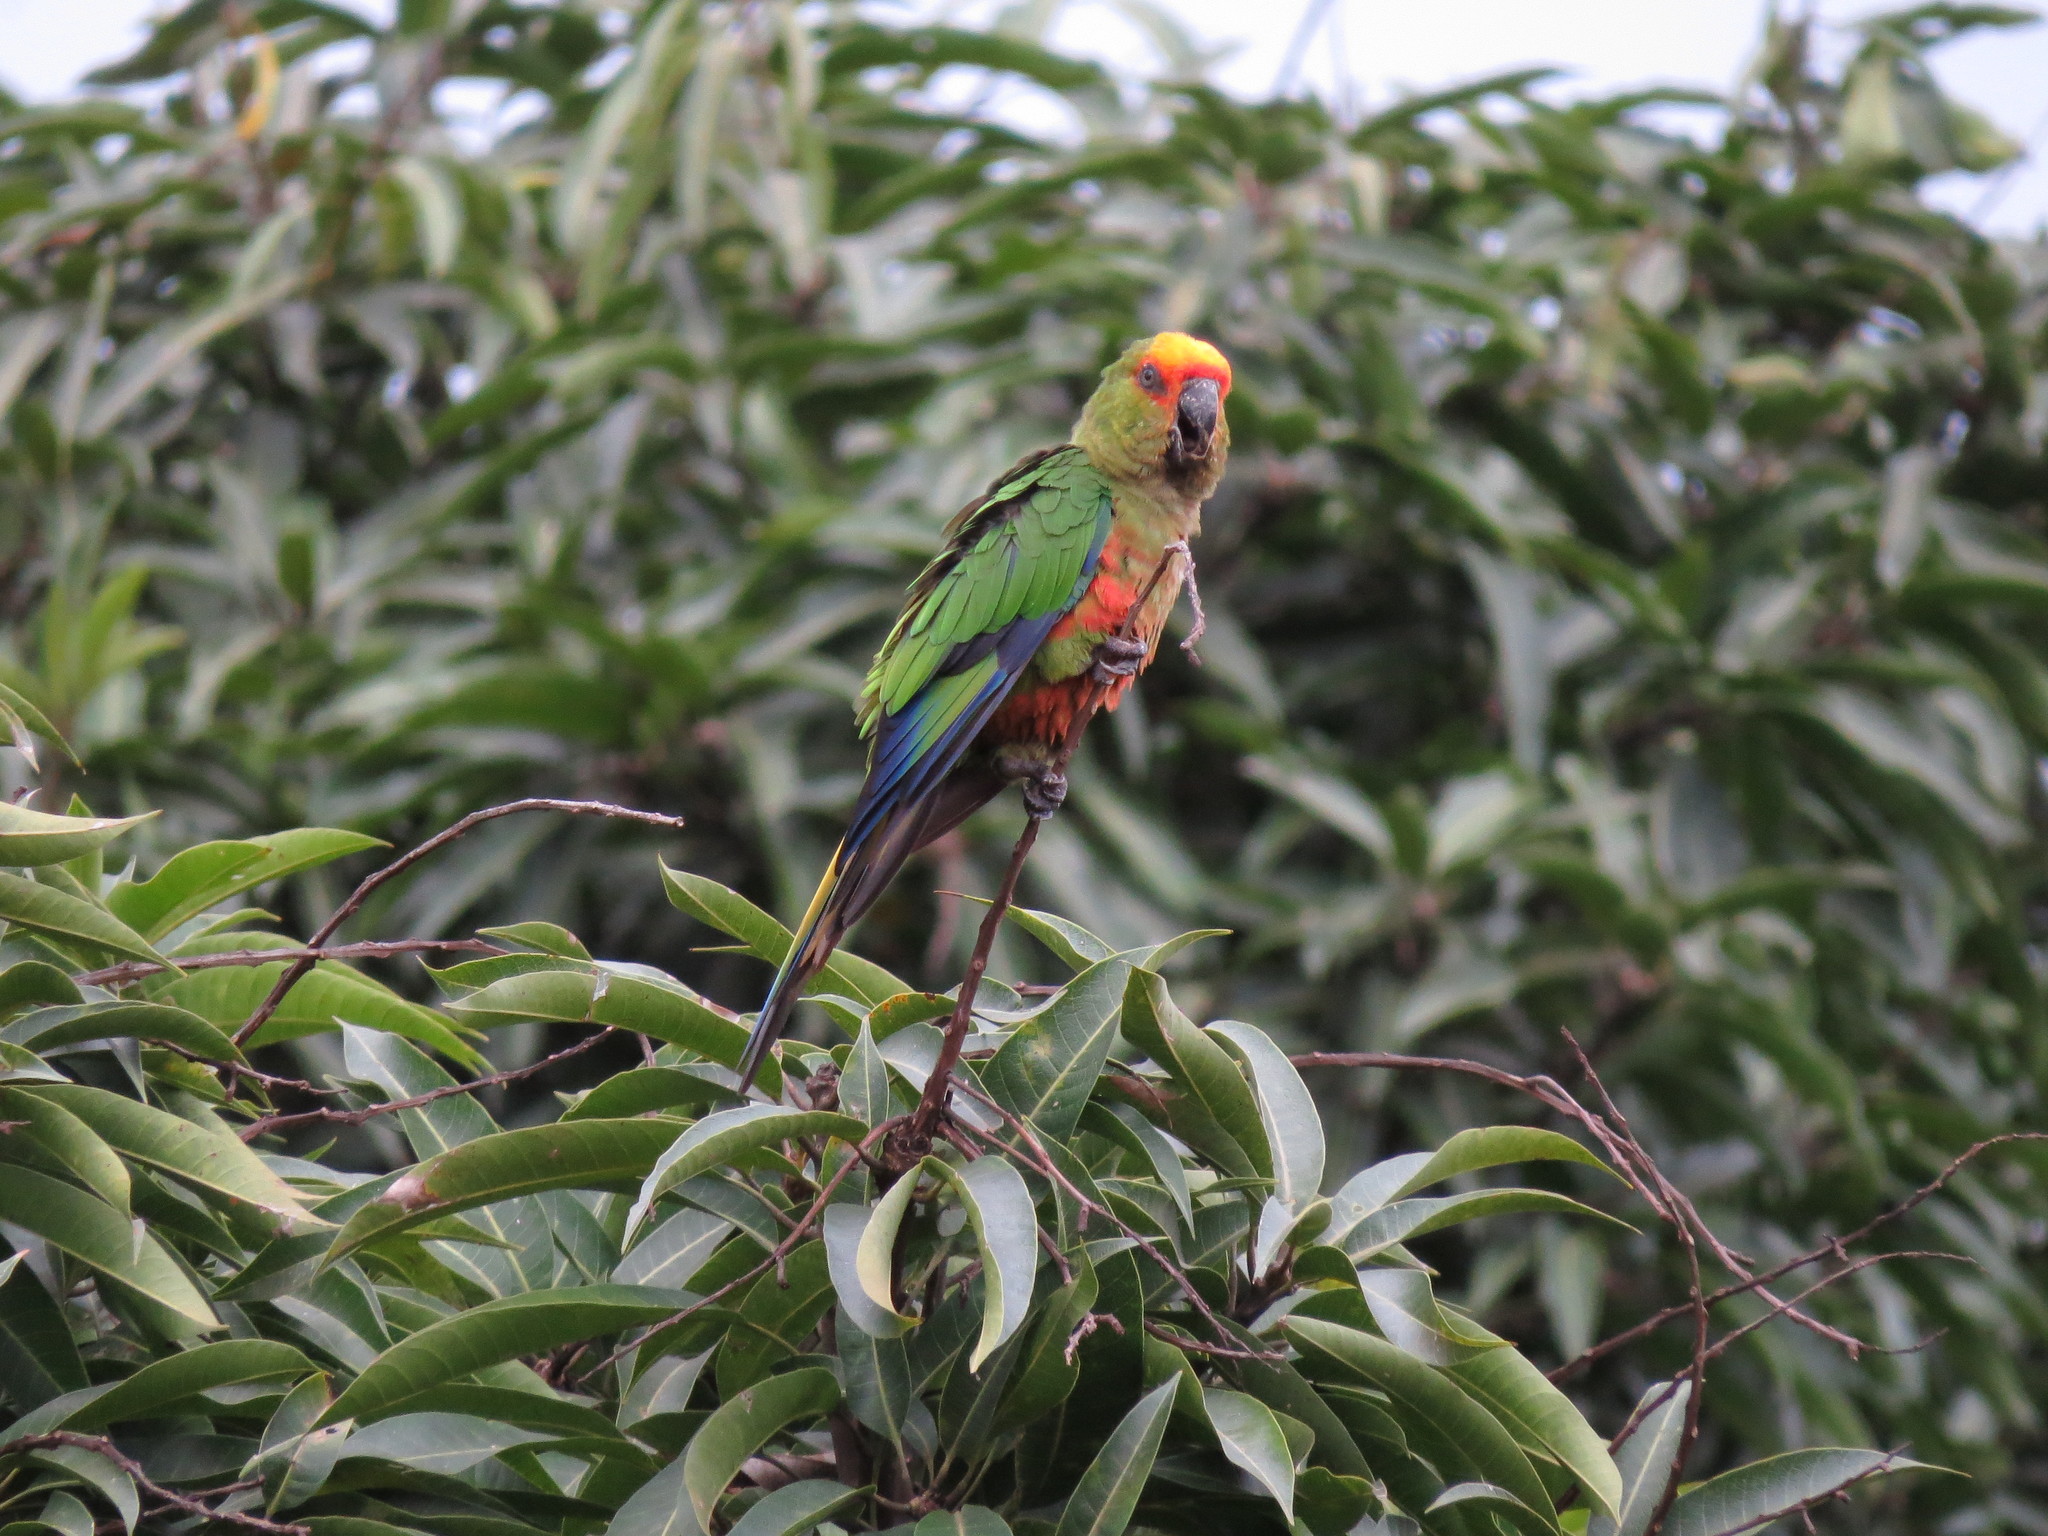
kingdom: Animalia
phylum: Chordata
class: Aves
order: Psittaciformes
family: Psittacidae
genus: Aratinga
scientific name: Aratinga auricapillus
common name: Golden-capped parakeet
